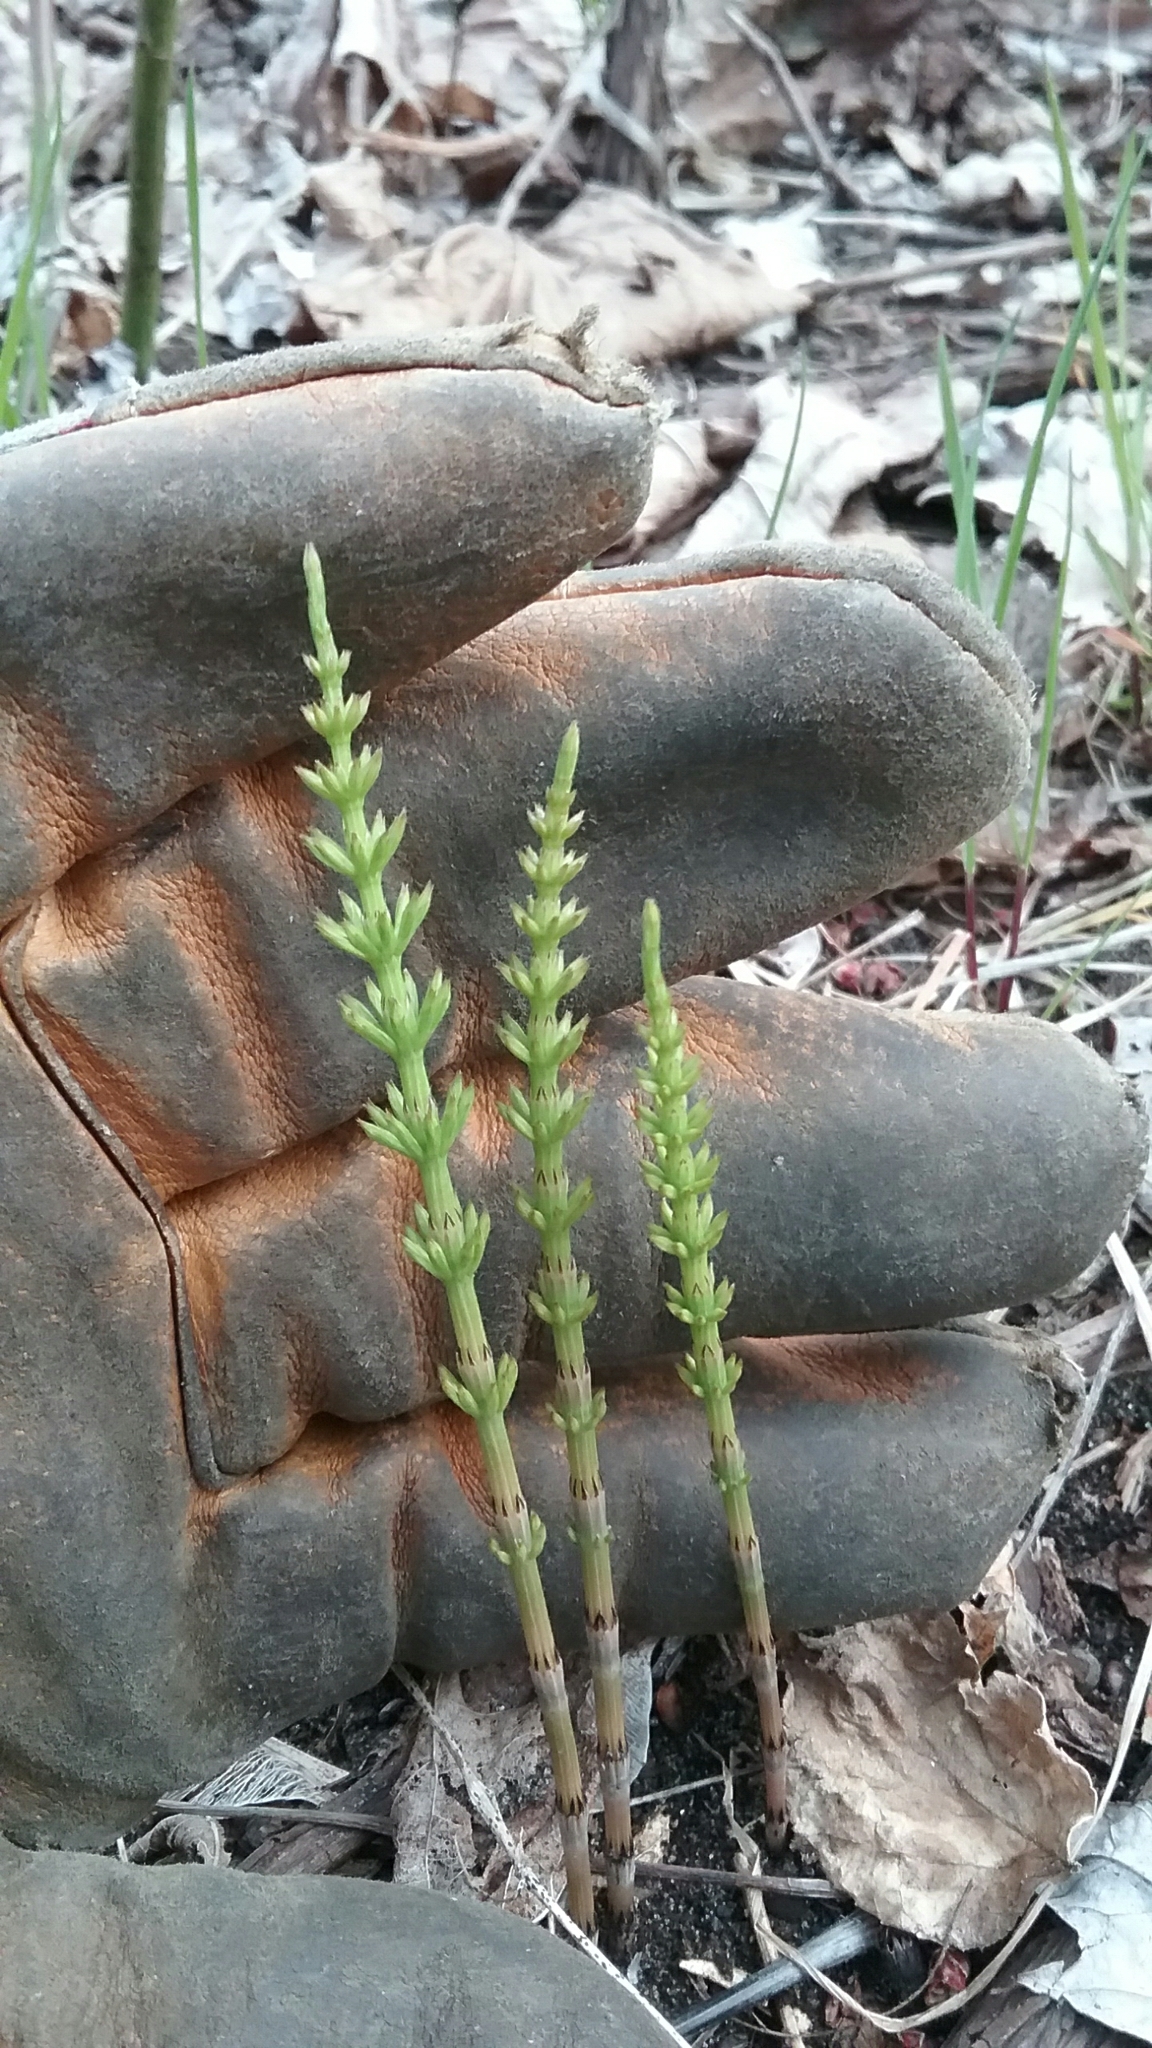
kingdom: Plantae
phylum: Tracheophyta
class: Polypodiopsida
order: Equisetales
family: Equisetaceae
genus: Equisetum
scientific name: Equisetum arvense
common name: Field horsetail
